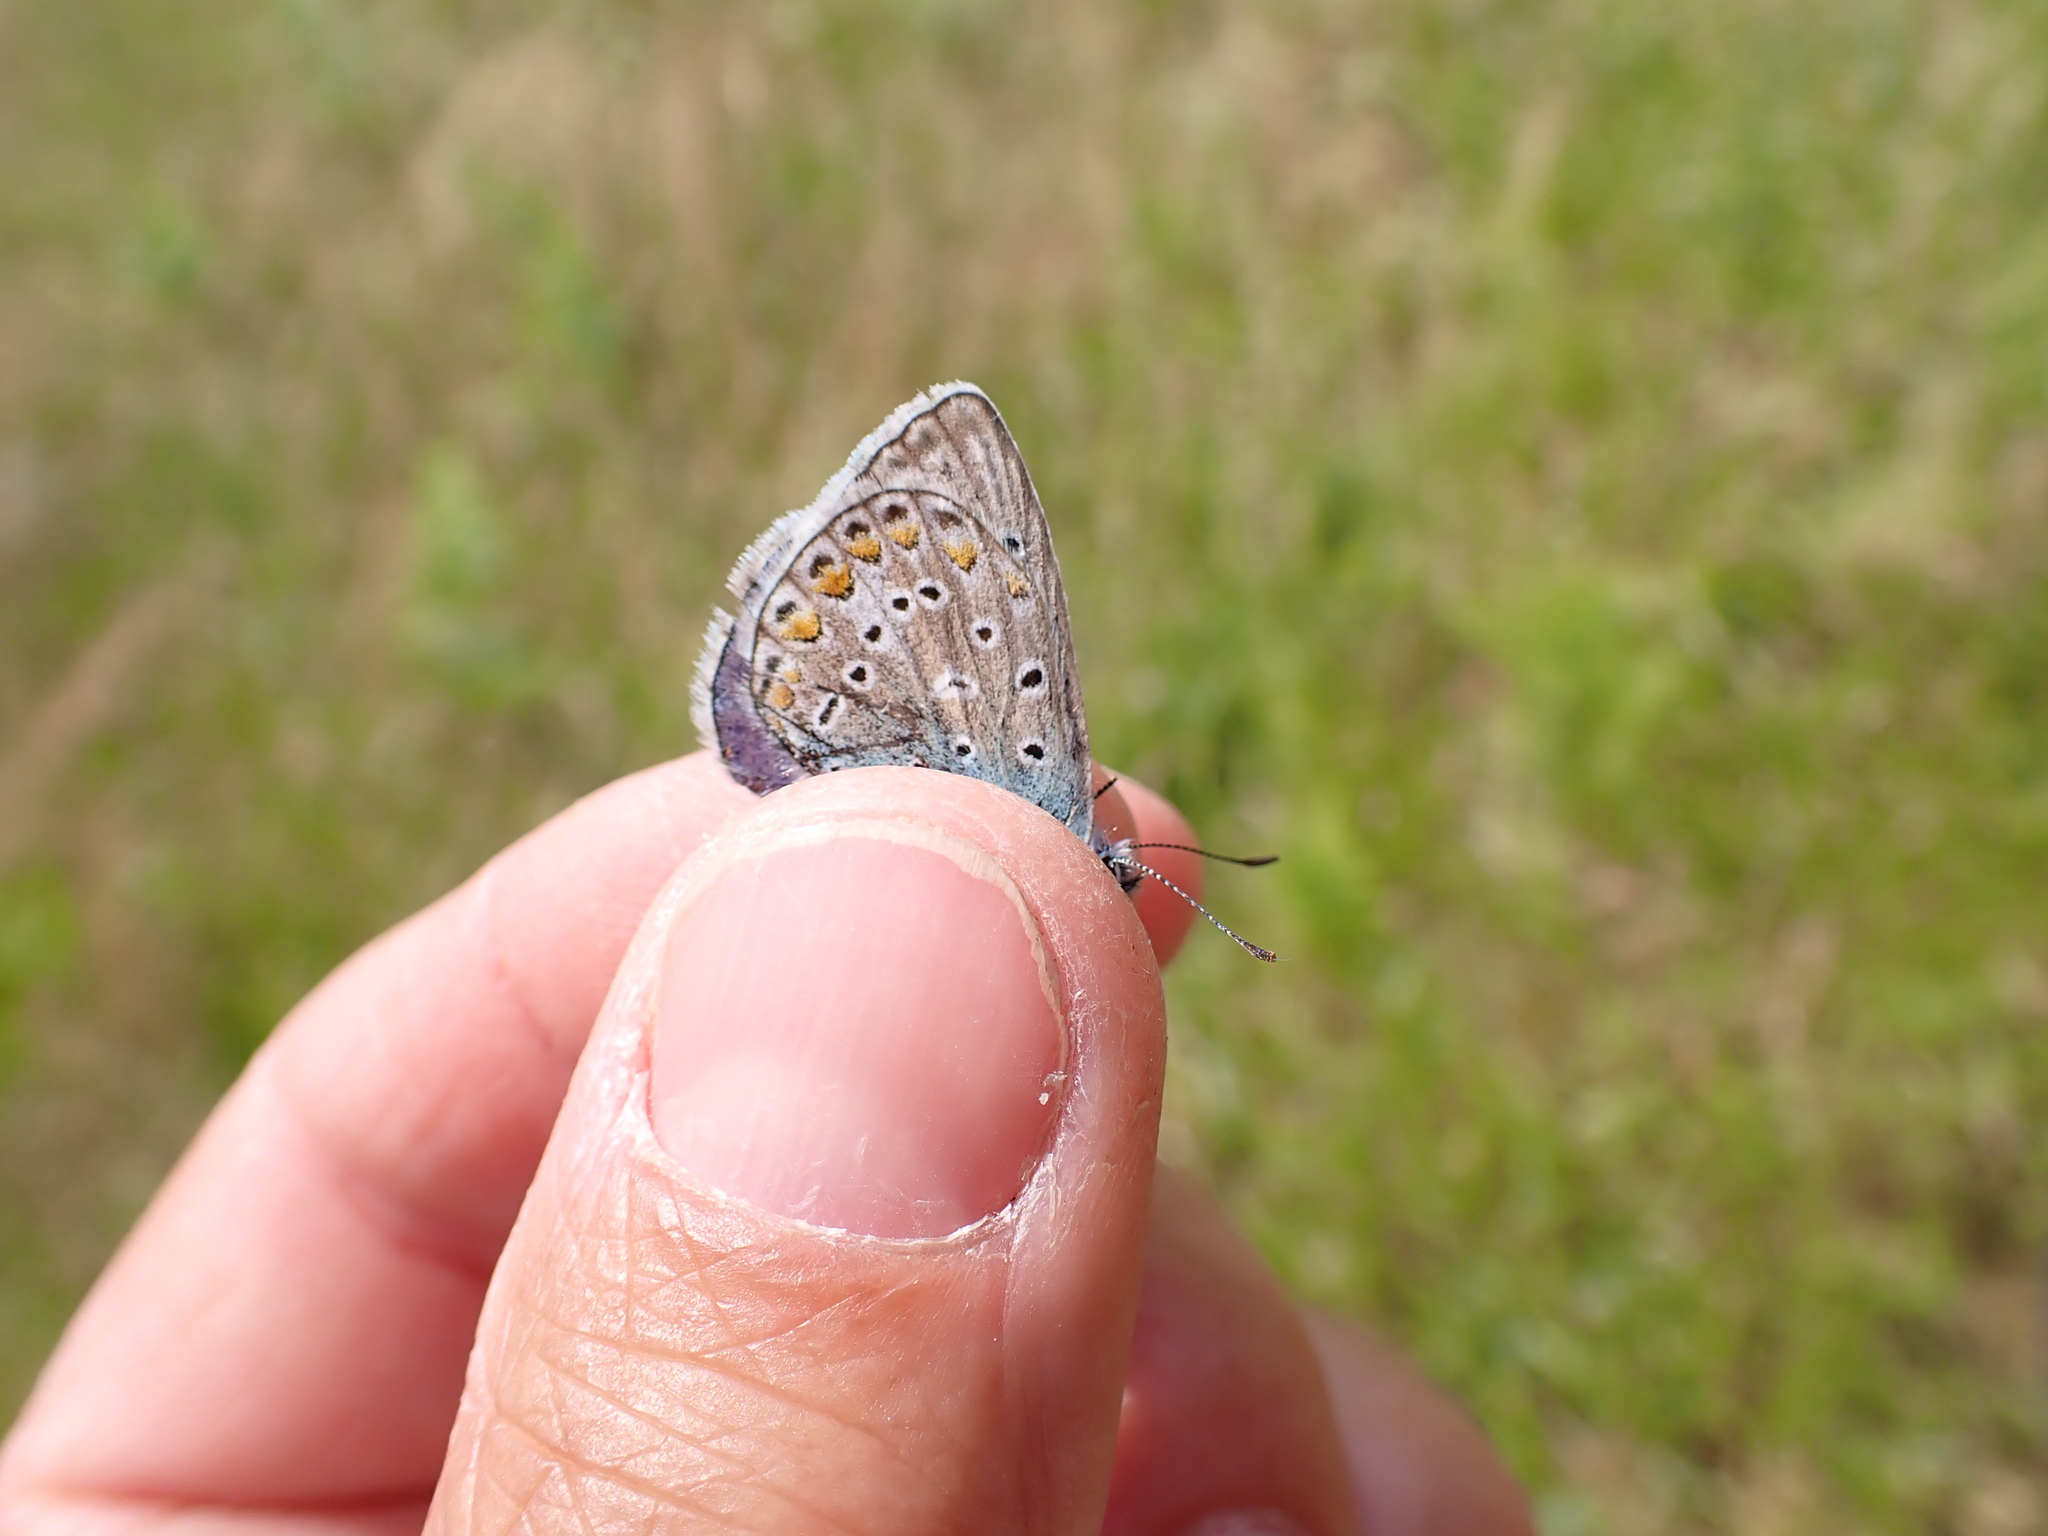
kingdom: Animalia
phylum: Arthropoda
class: Insecta
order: Lepidoptera
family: Lycaenidae
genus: Polyommatus
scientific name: Polyommatus icarus
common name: Common blue
